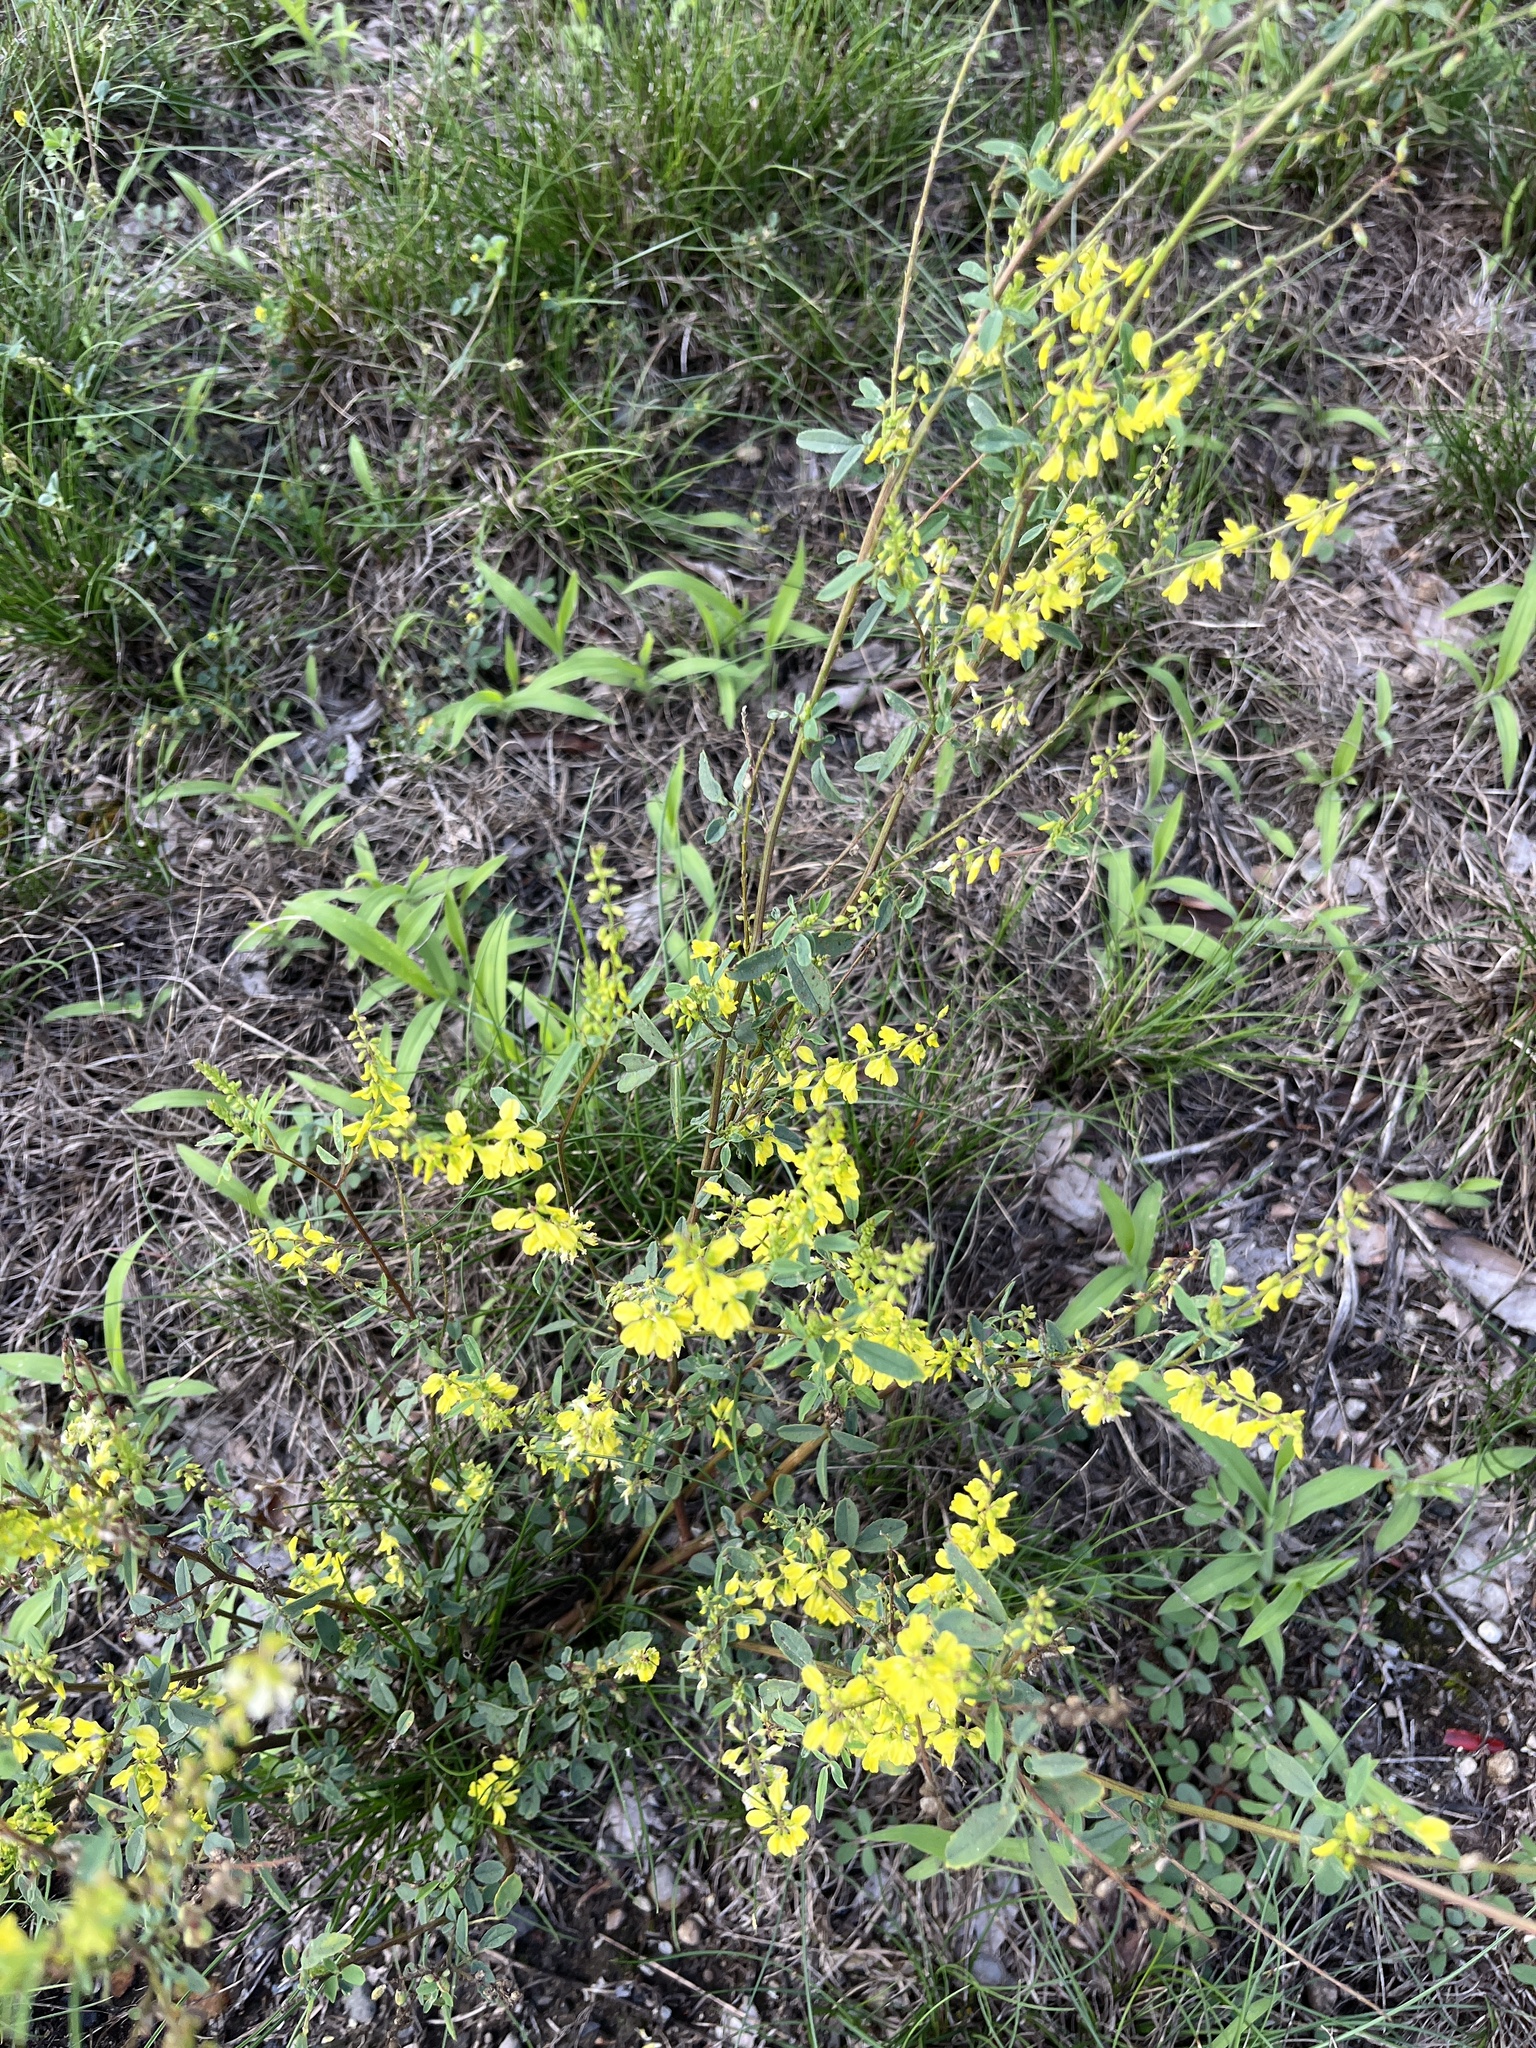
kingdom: Plantae
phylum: Tracheophyta
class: Magnoliopsida
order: Fabales
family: Fabaceae
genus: Melilotus
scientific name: Melilotus officinalis
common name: Sweetclover
